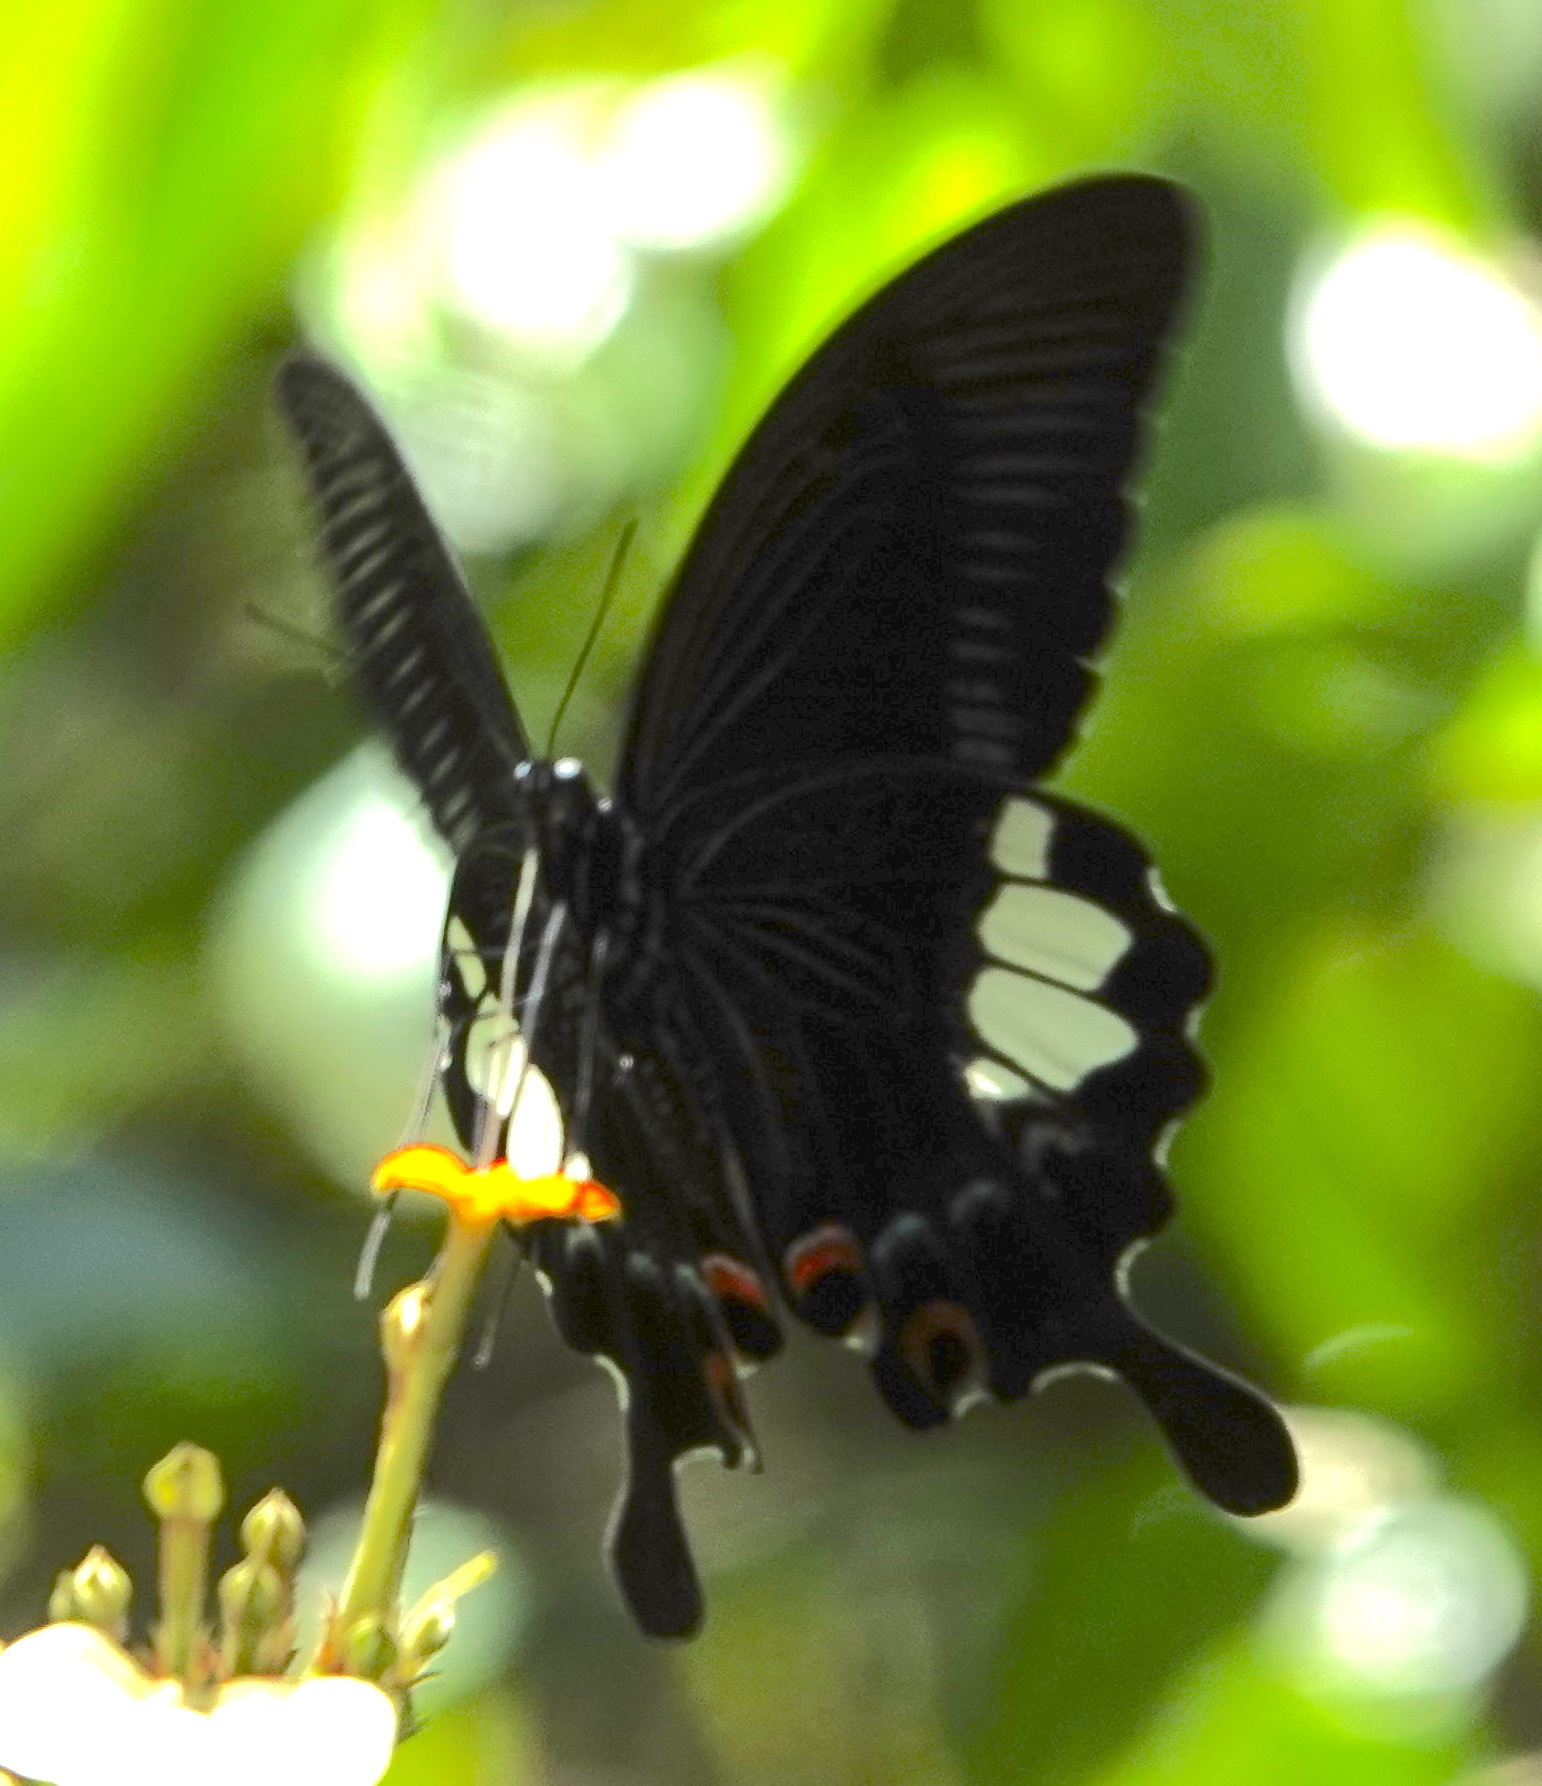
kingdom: Animalia
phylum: Arthropoda
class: Insecta
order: Lepidoptera
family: Papilionidae
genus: Papilio
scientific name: Papilio iswara
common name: Great helen swallowtail
